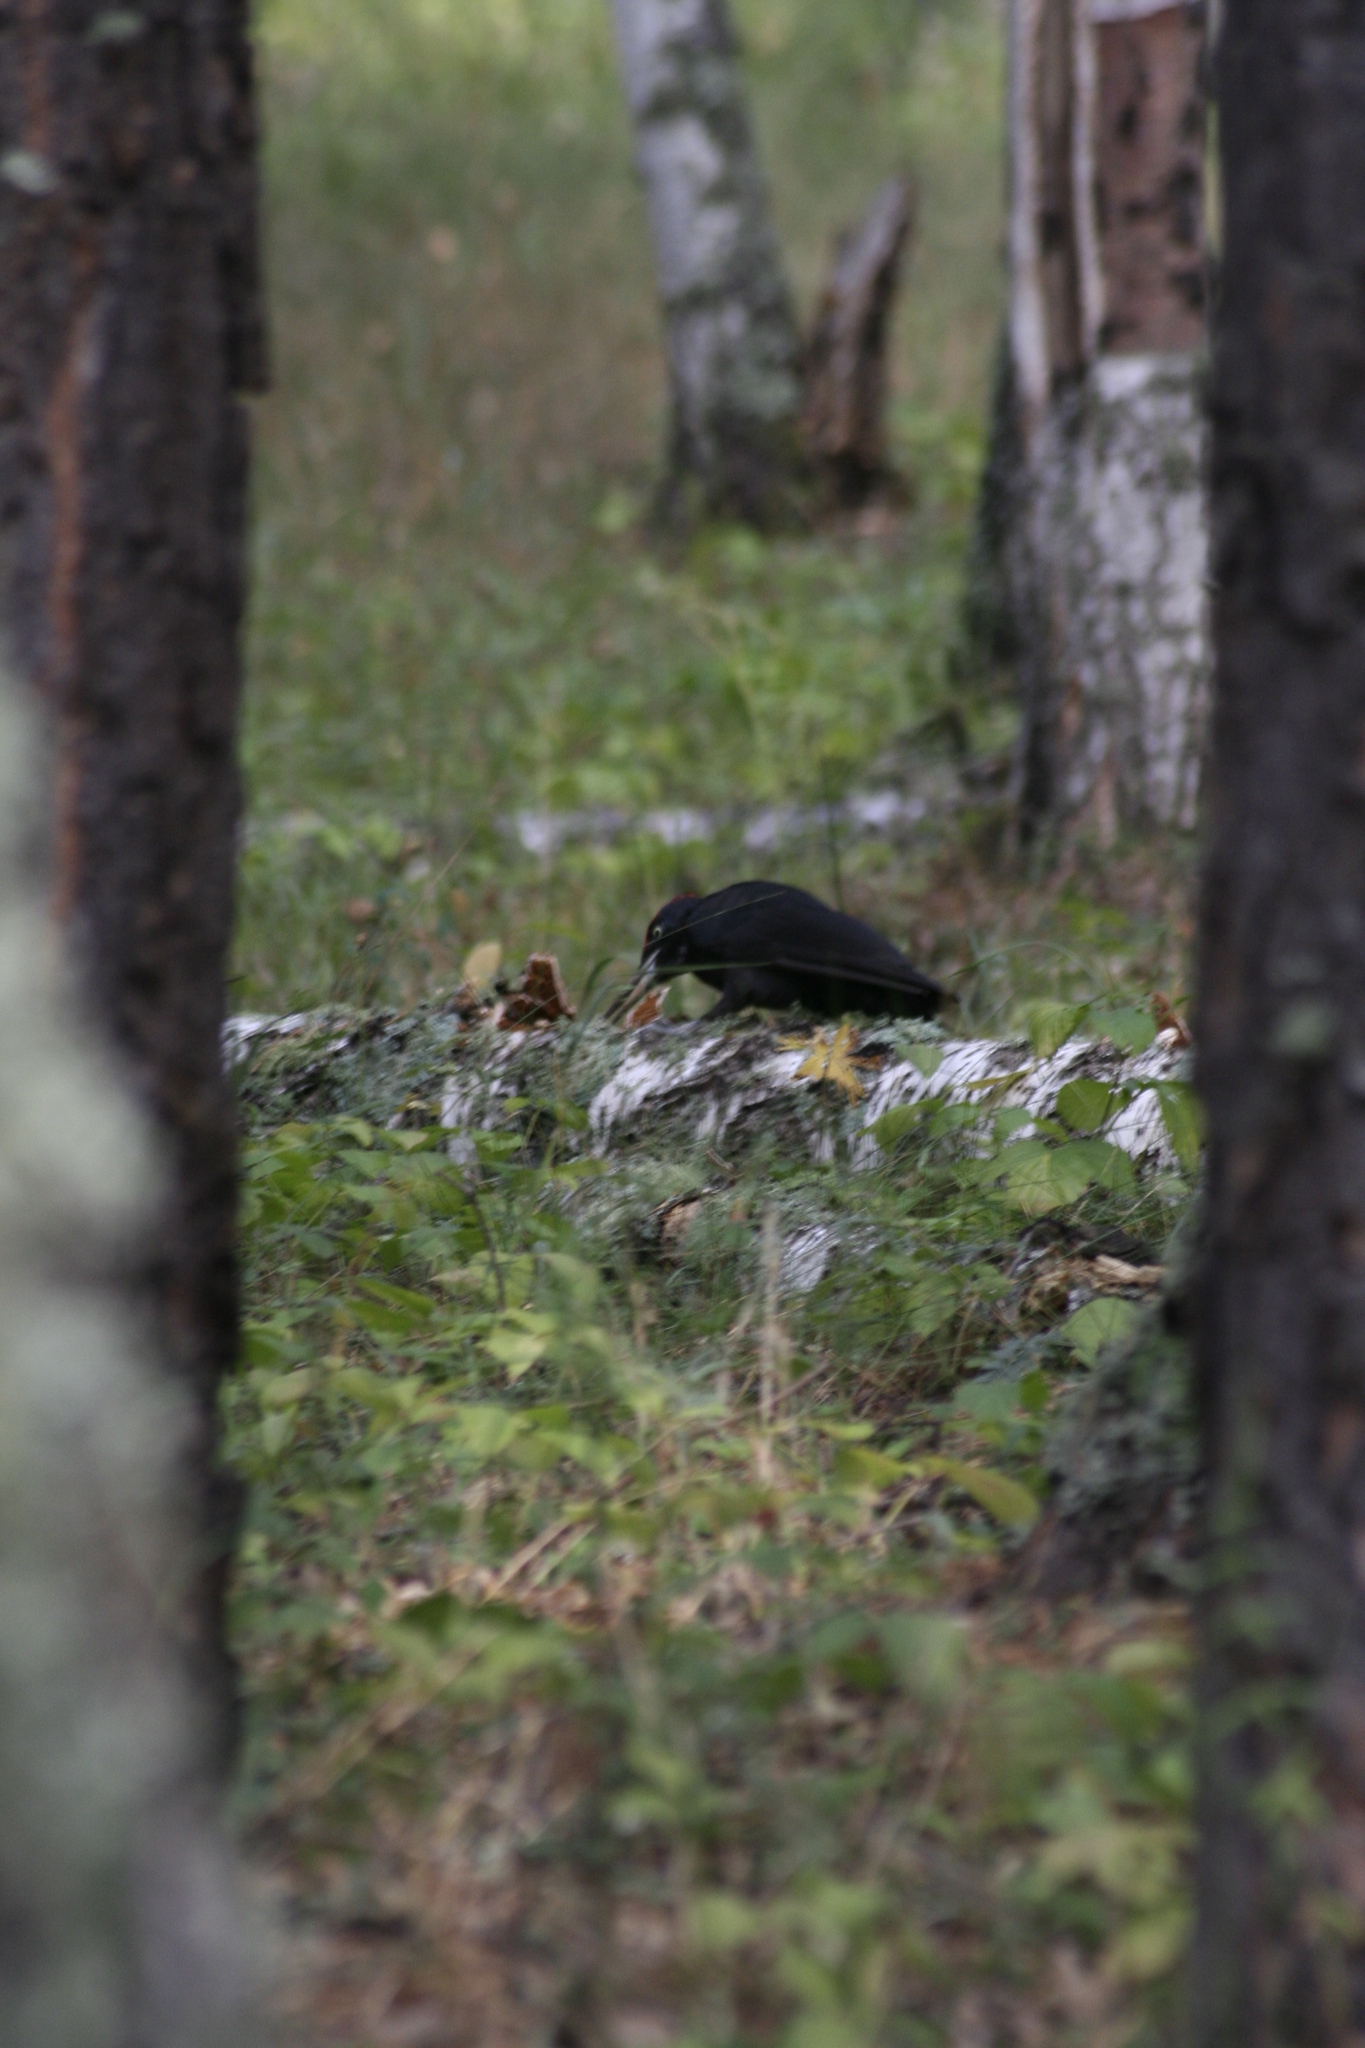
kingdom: Animalia
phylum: Chordata
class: Aves
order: Piciformes
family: Picidae
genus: Dryocopus
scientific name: Dryocopus martius
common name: Black woodpecker
